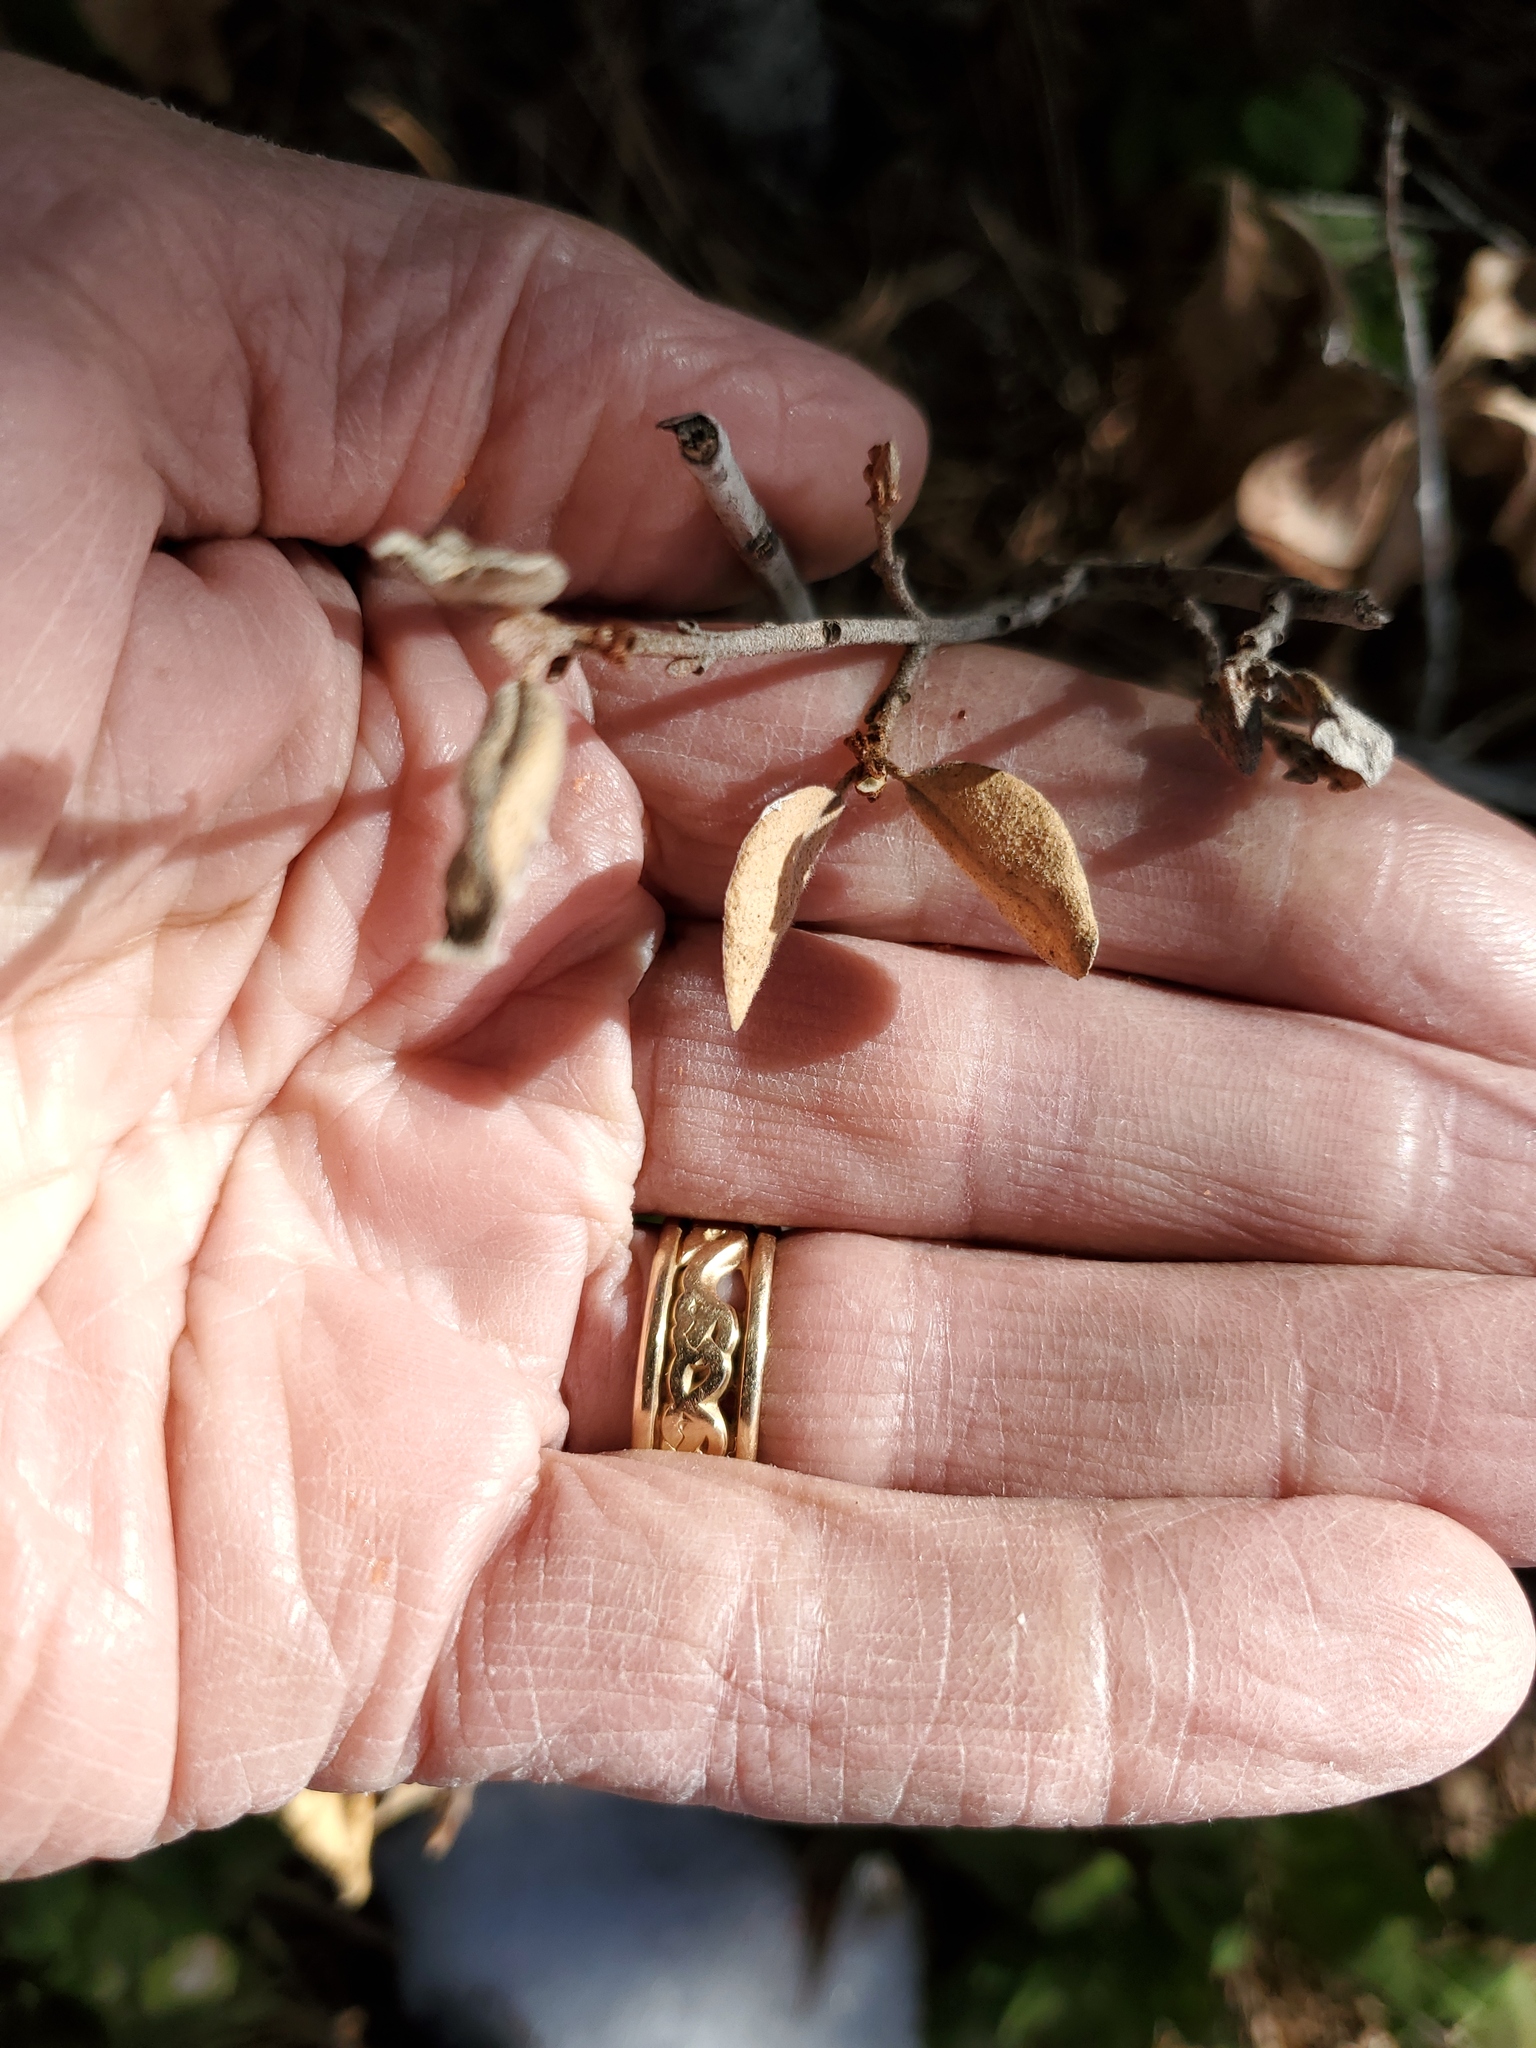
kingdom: Plantae
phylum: Tracheophyta
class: Magnoliopsida
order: Rosales
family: Elaeagnaceae
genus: Shepherdia
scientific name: Shepherdia canadensis
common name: Soapberry
